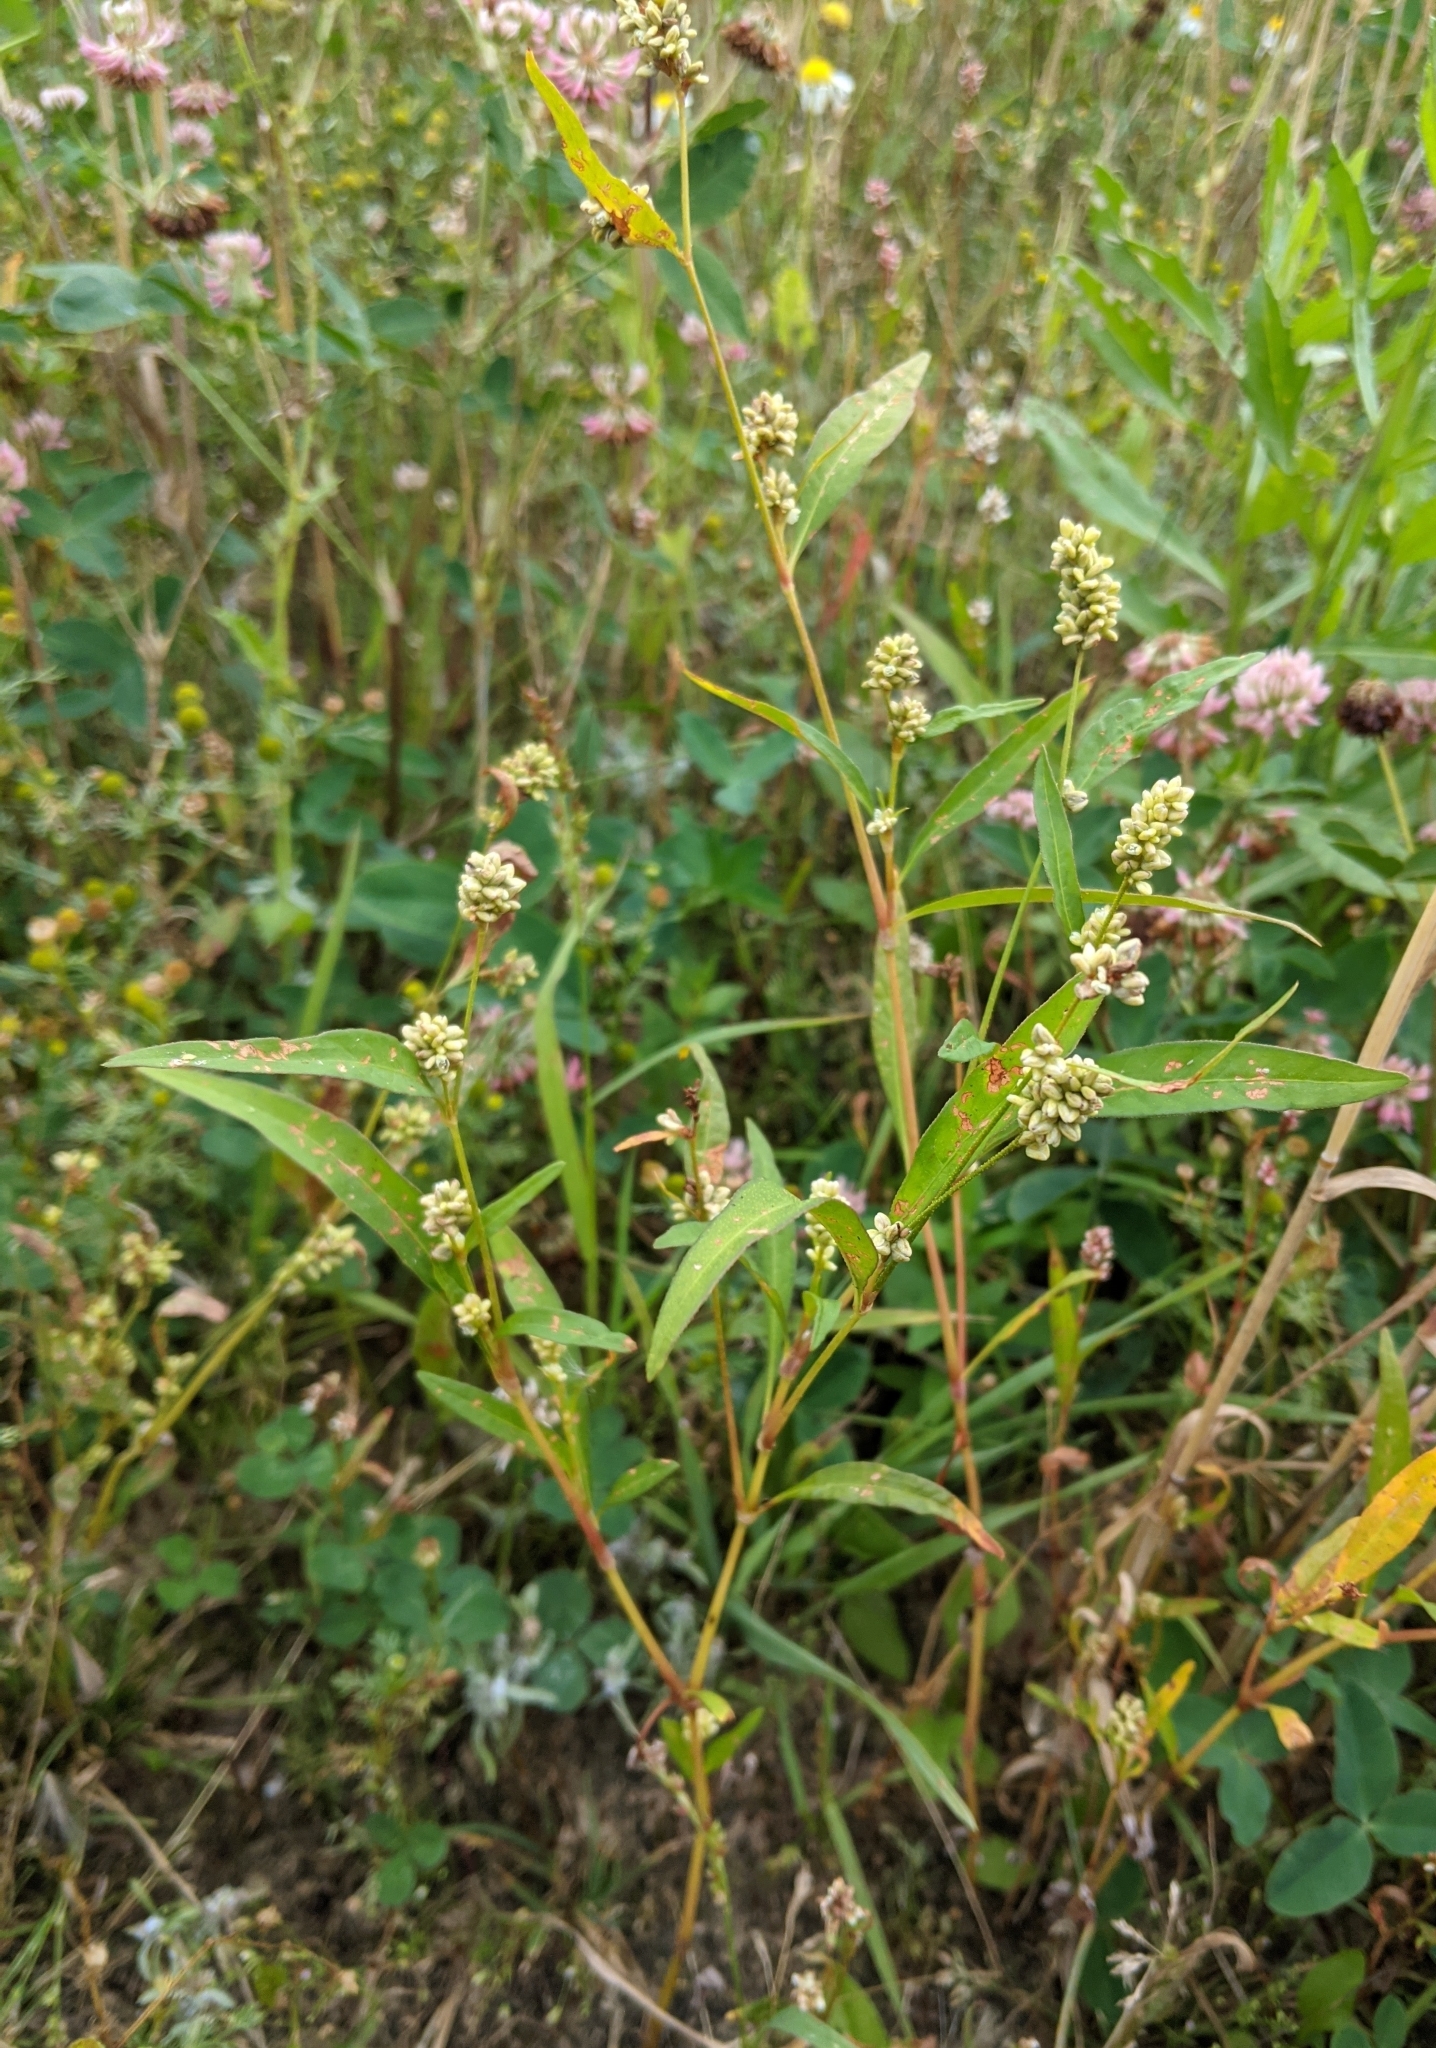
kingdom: Plantae
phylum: Tracheophyta
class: Magnoliopsida
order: Caryophyllales
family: Polygonaceae
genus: Persicaria
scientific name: Persicaria lapathifolia
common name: Curlytop knotweed
